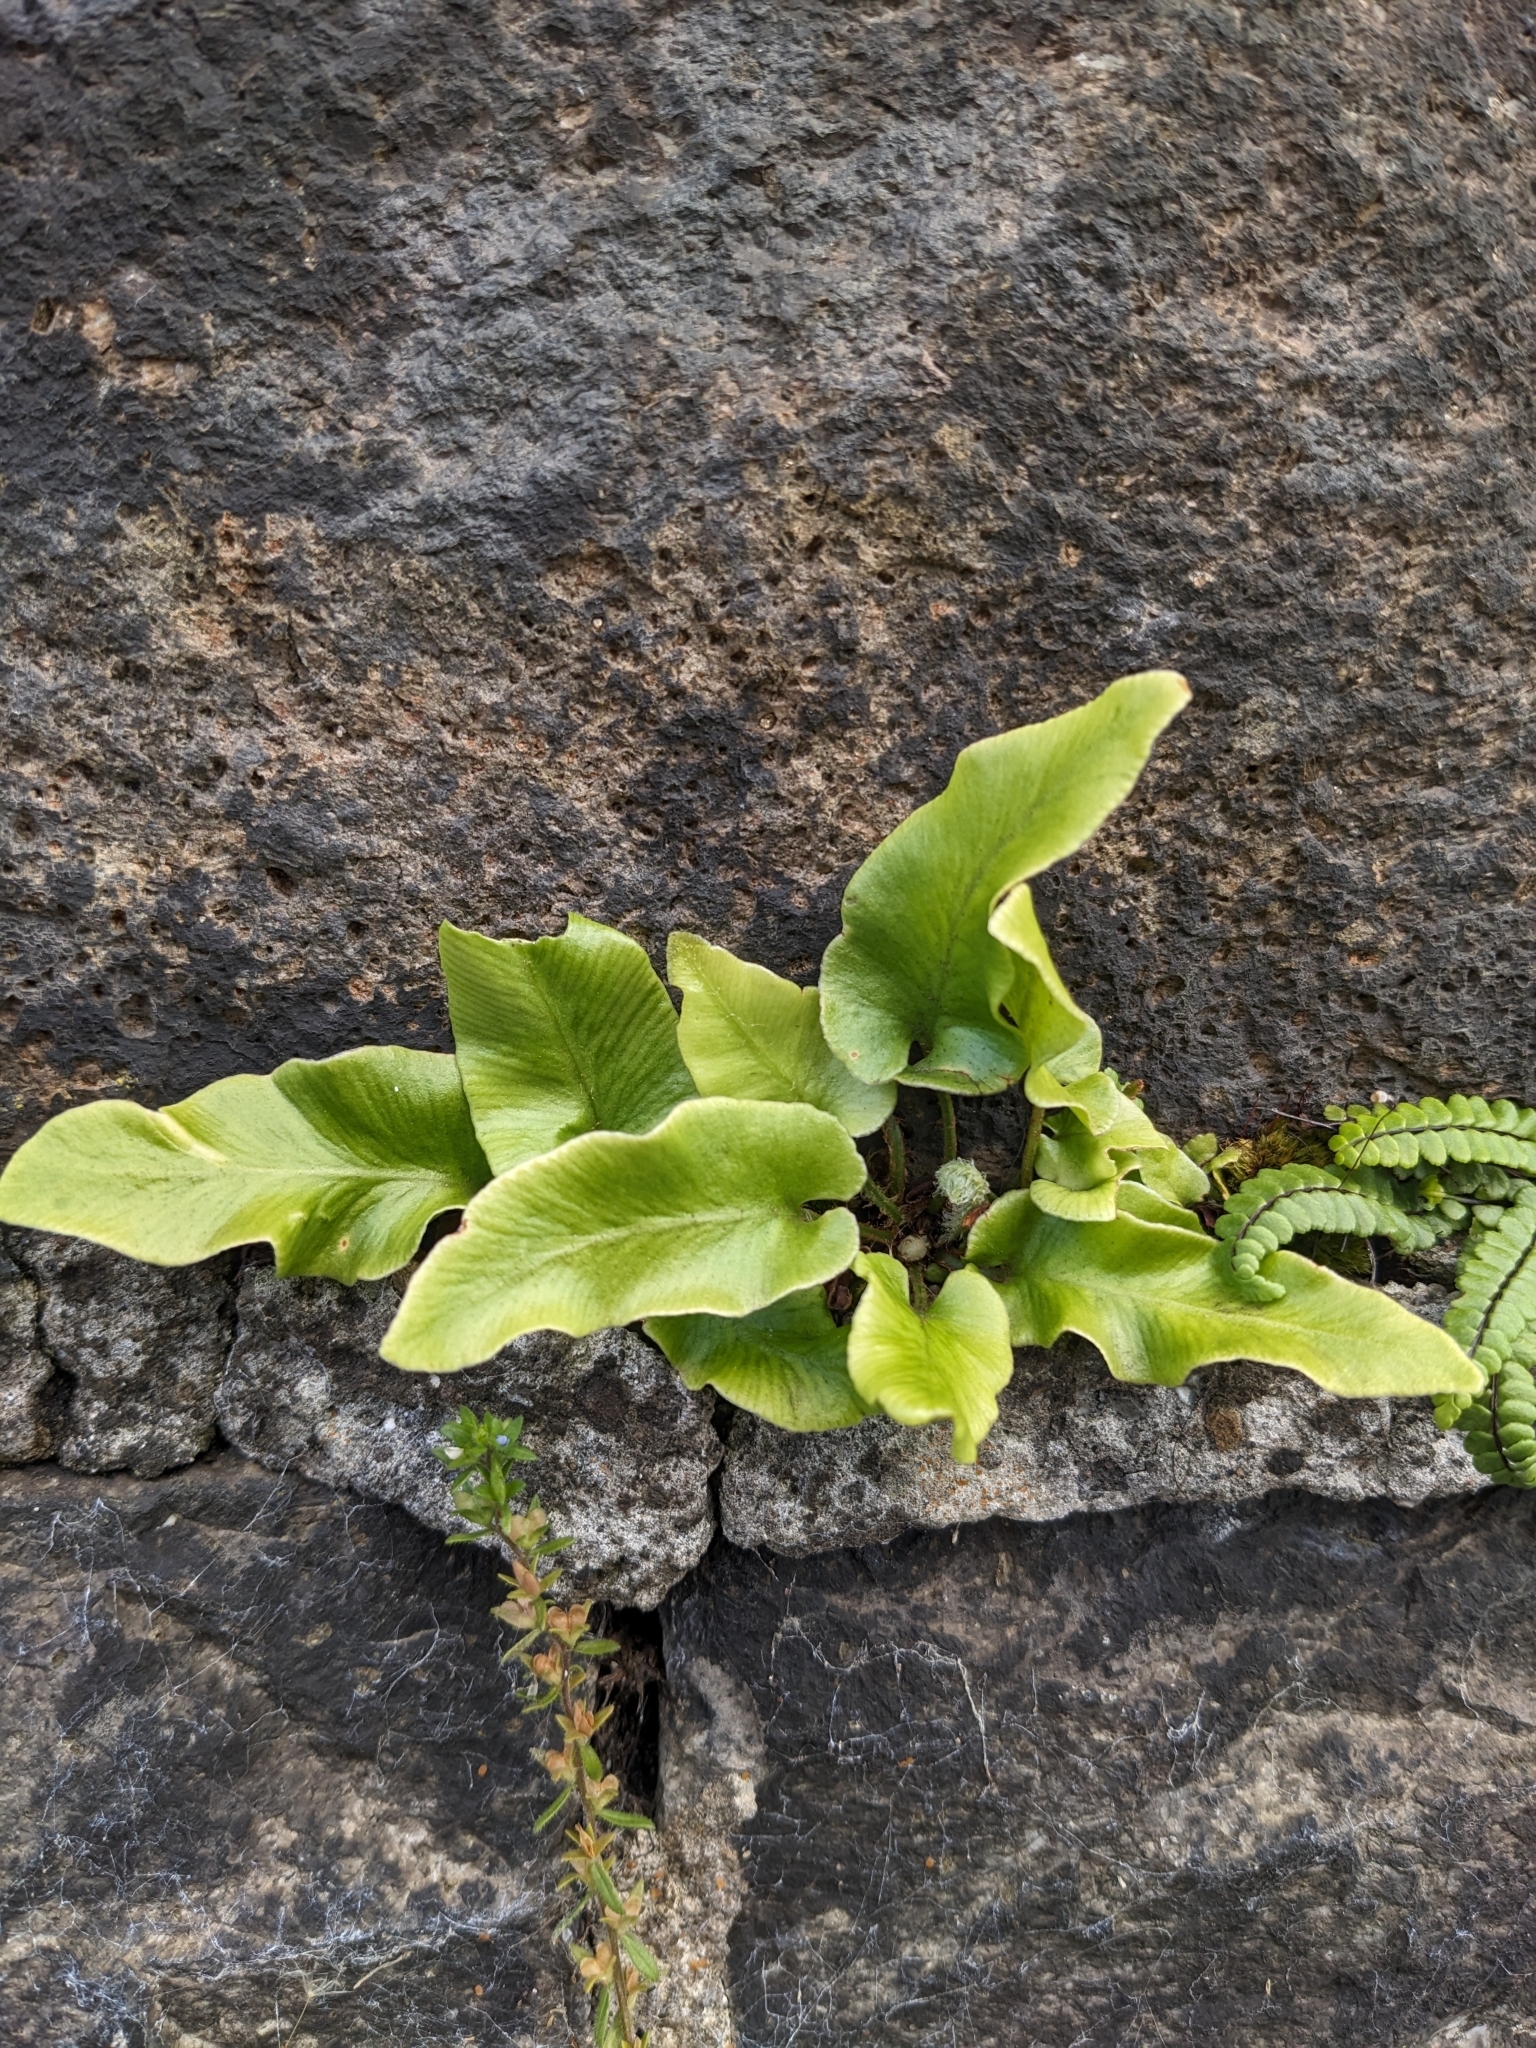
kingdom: Plantae
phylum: Tracheophyta
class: Polypodiopsida
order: Polypodiales
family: Aspleniaceae
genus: Asplenium
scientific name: Asplenium scolopendrium
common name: Hart's-tongue fern
